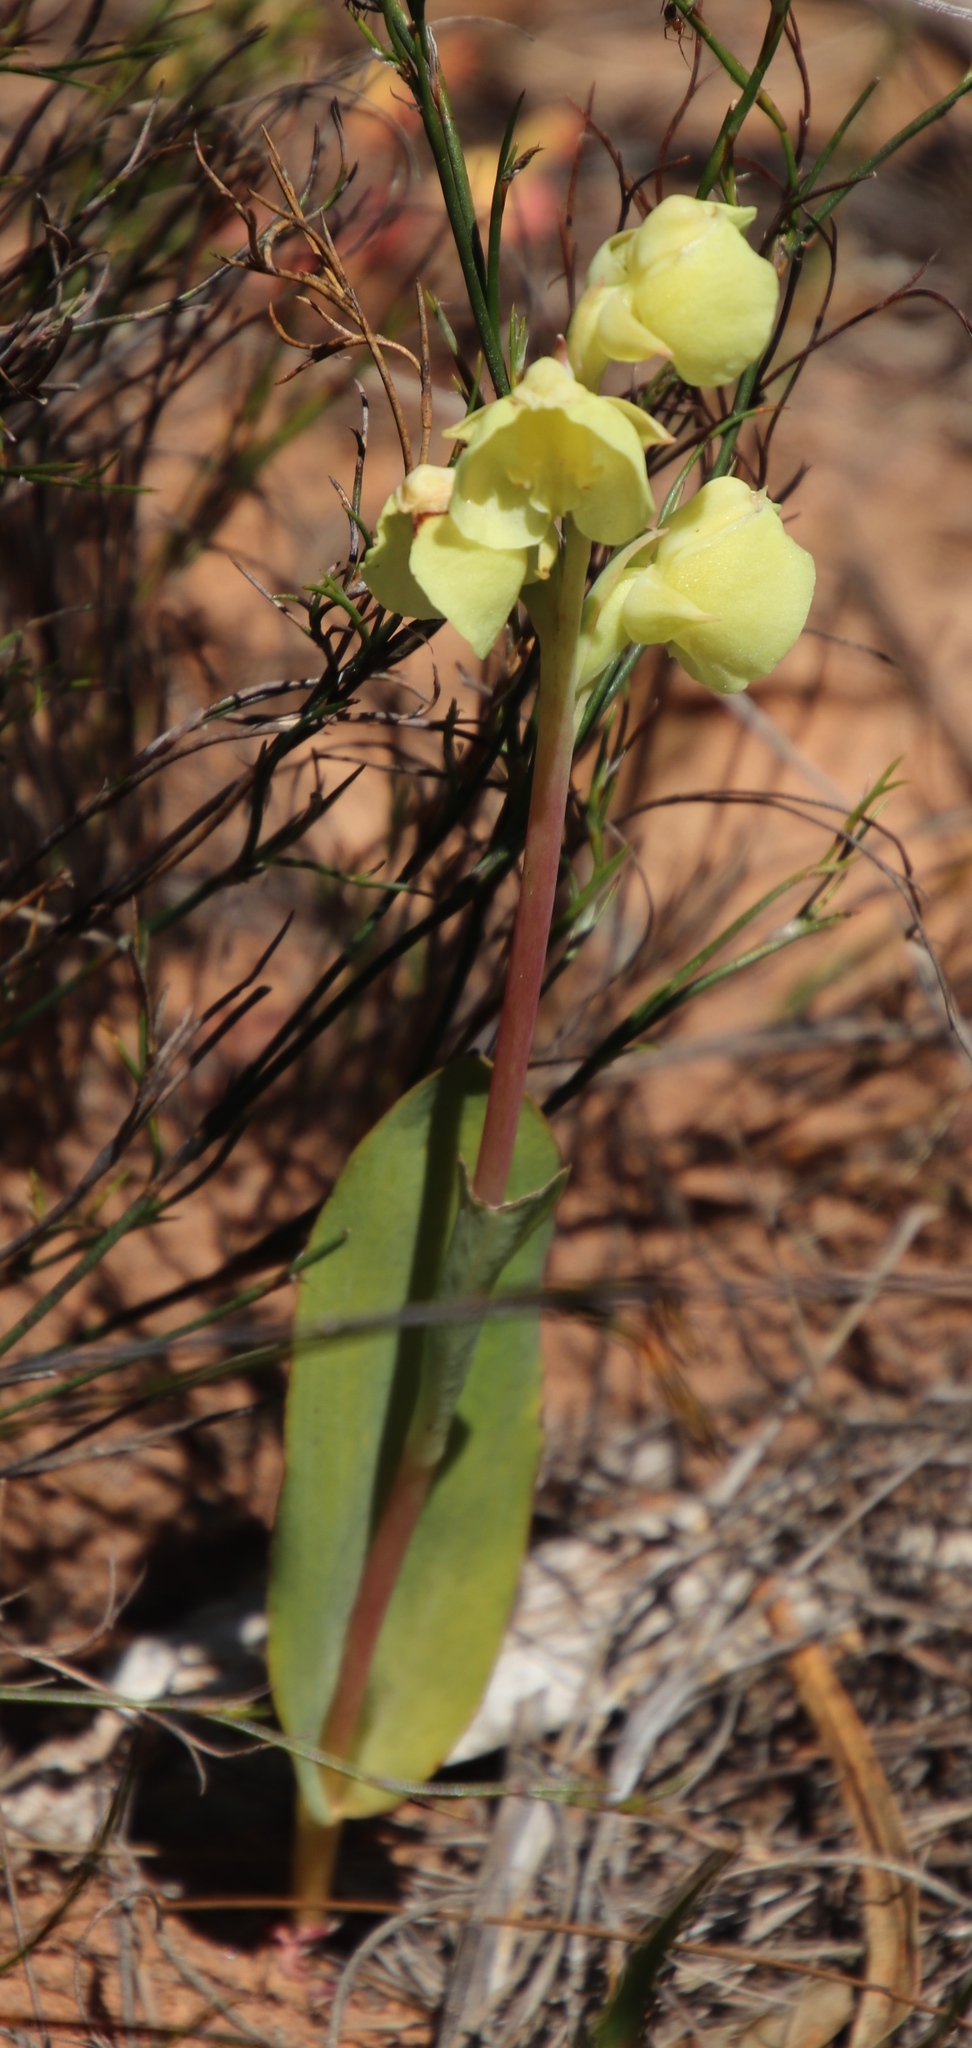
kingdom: Plantae
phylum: Tracheophyta
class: Liliopsida
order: Asparagales
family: Orchidaceae
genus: Pterygodium
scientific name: Pterygodium catholicum
